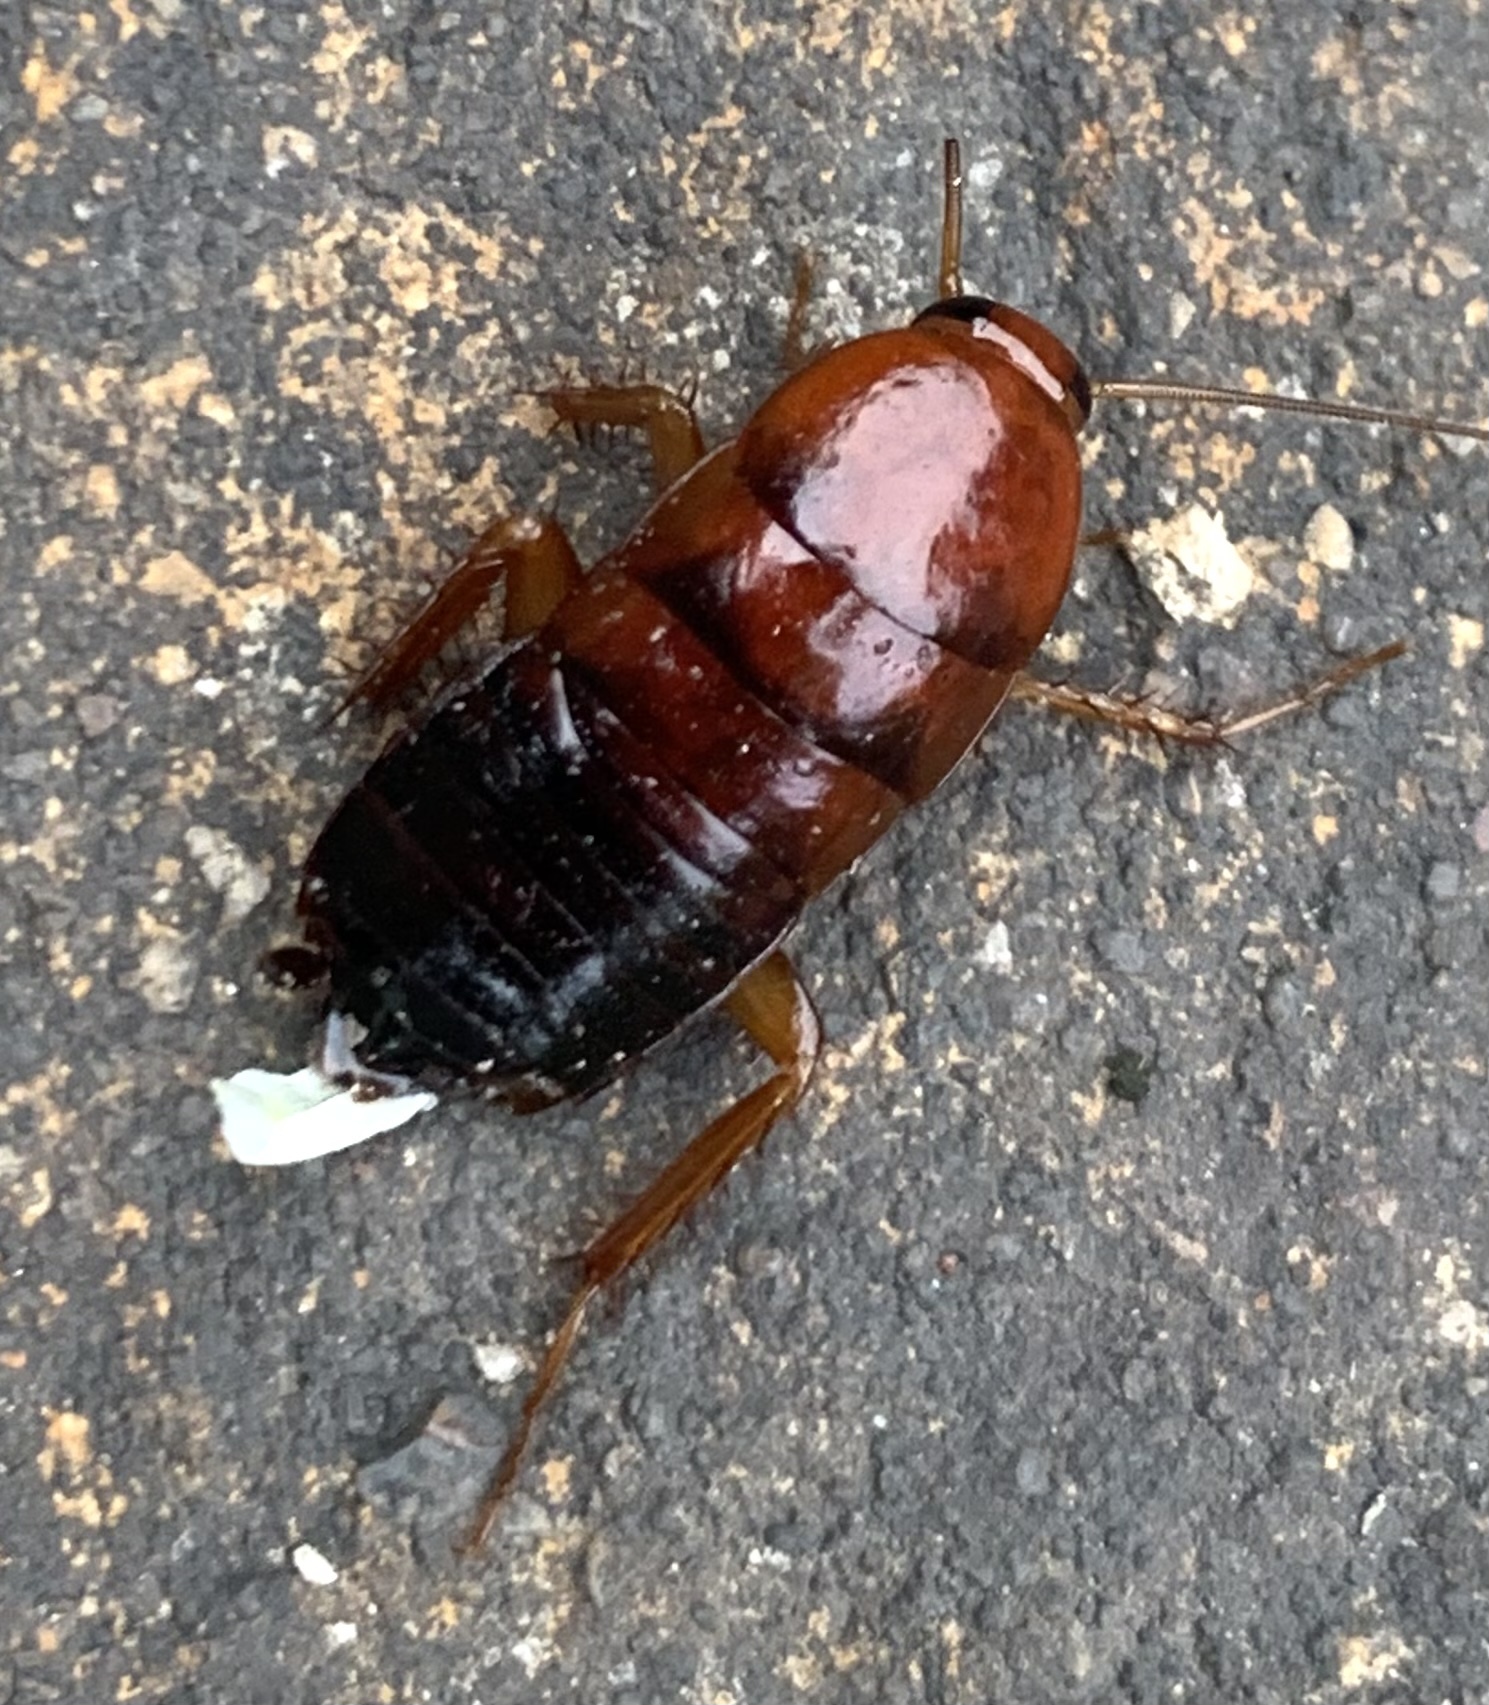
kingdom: Animalia
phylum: Arthropoda
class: Insecta
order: Blattodea
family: Blattidae
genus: Periplaneta
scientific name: Periplaneta lateralis
